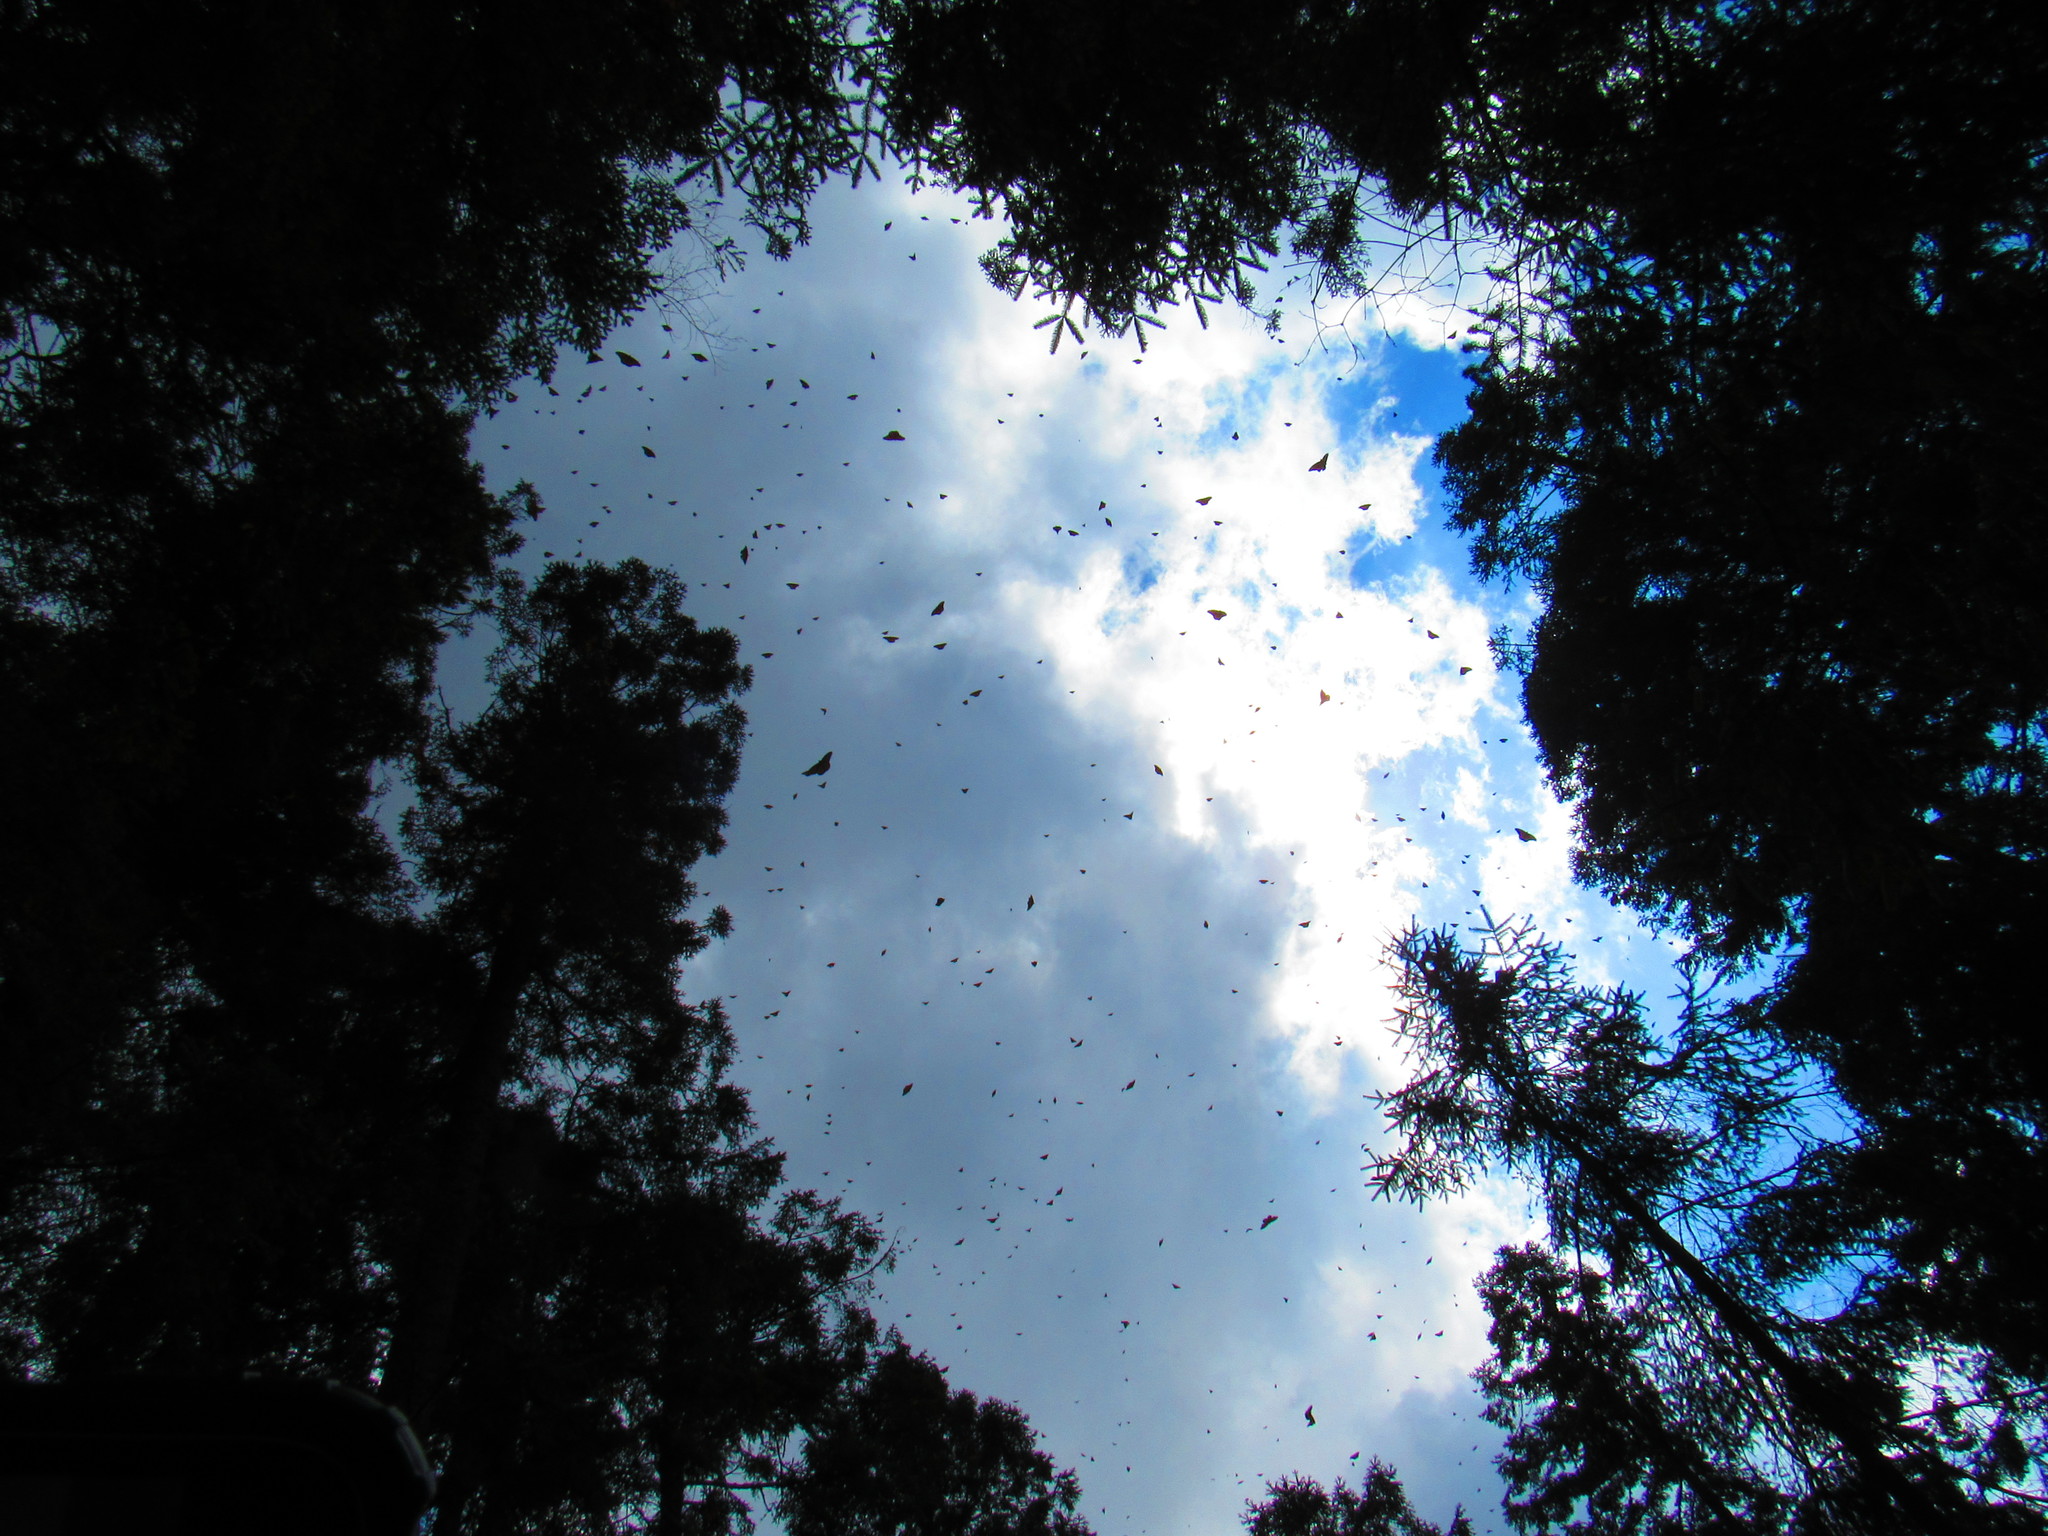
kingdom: Animalia
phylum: Arthropoda
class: Insecta
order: Lepidoptera
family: Nymphalidae
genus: Danaus
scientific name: Danaus plexippus
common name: Monarch
